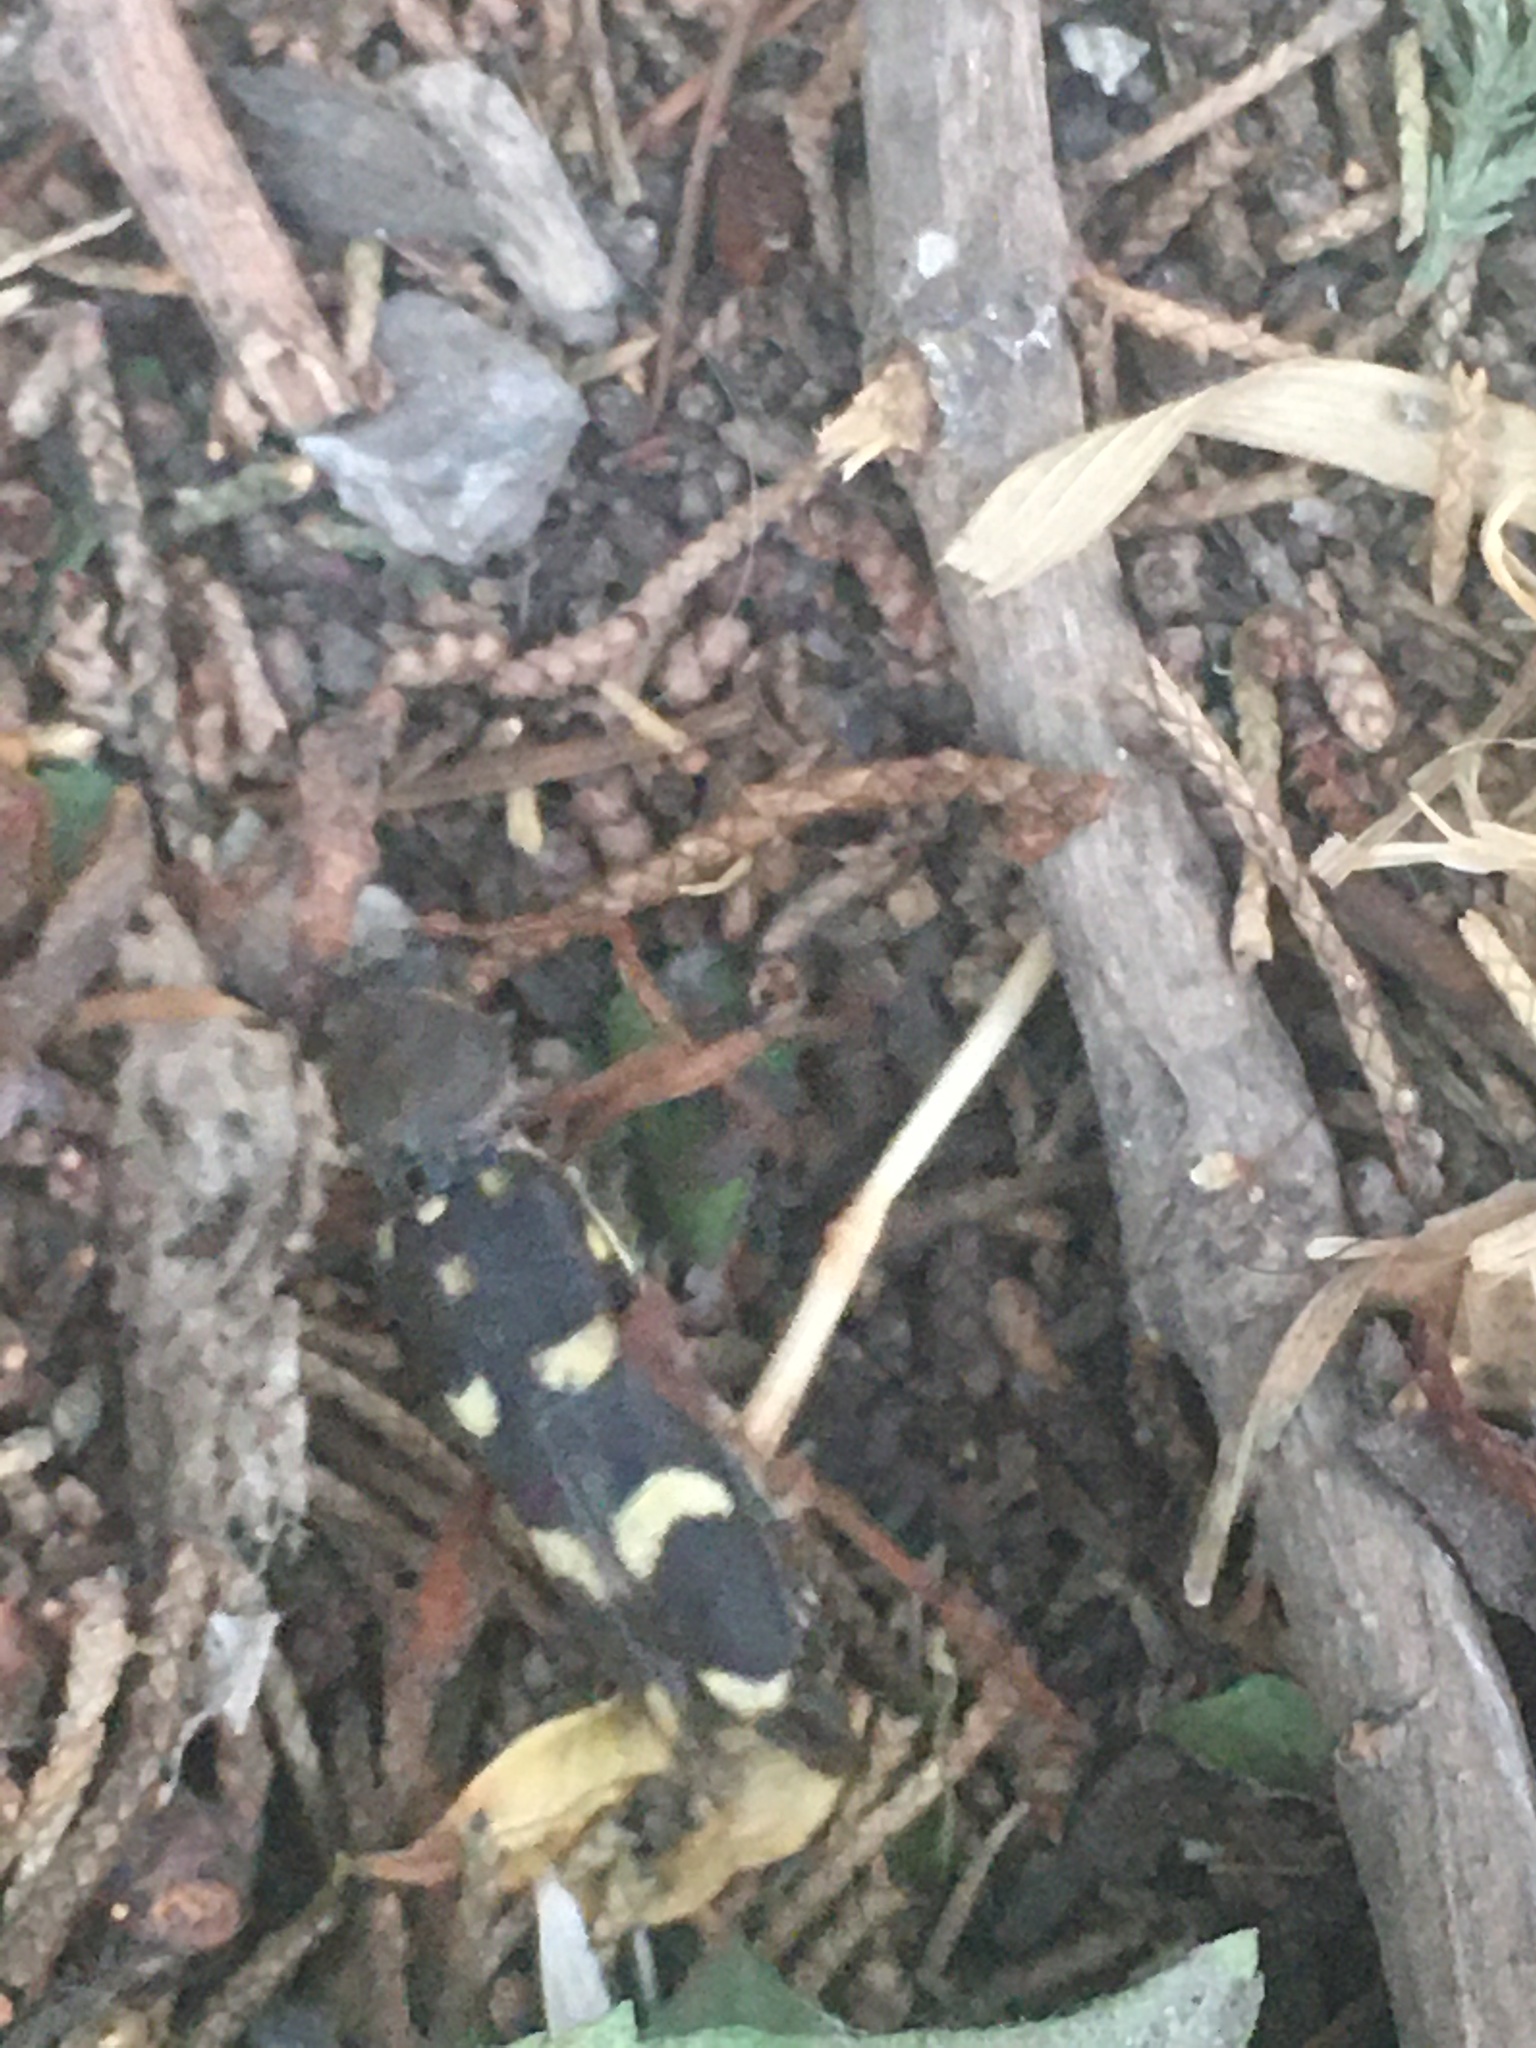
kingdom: Animalia
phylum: Arthropoda
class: Insecta
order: Coleoptera
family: Cerambycidae
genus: Isotomus
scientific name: Isotomus speciosus
